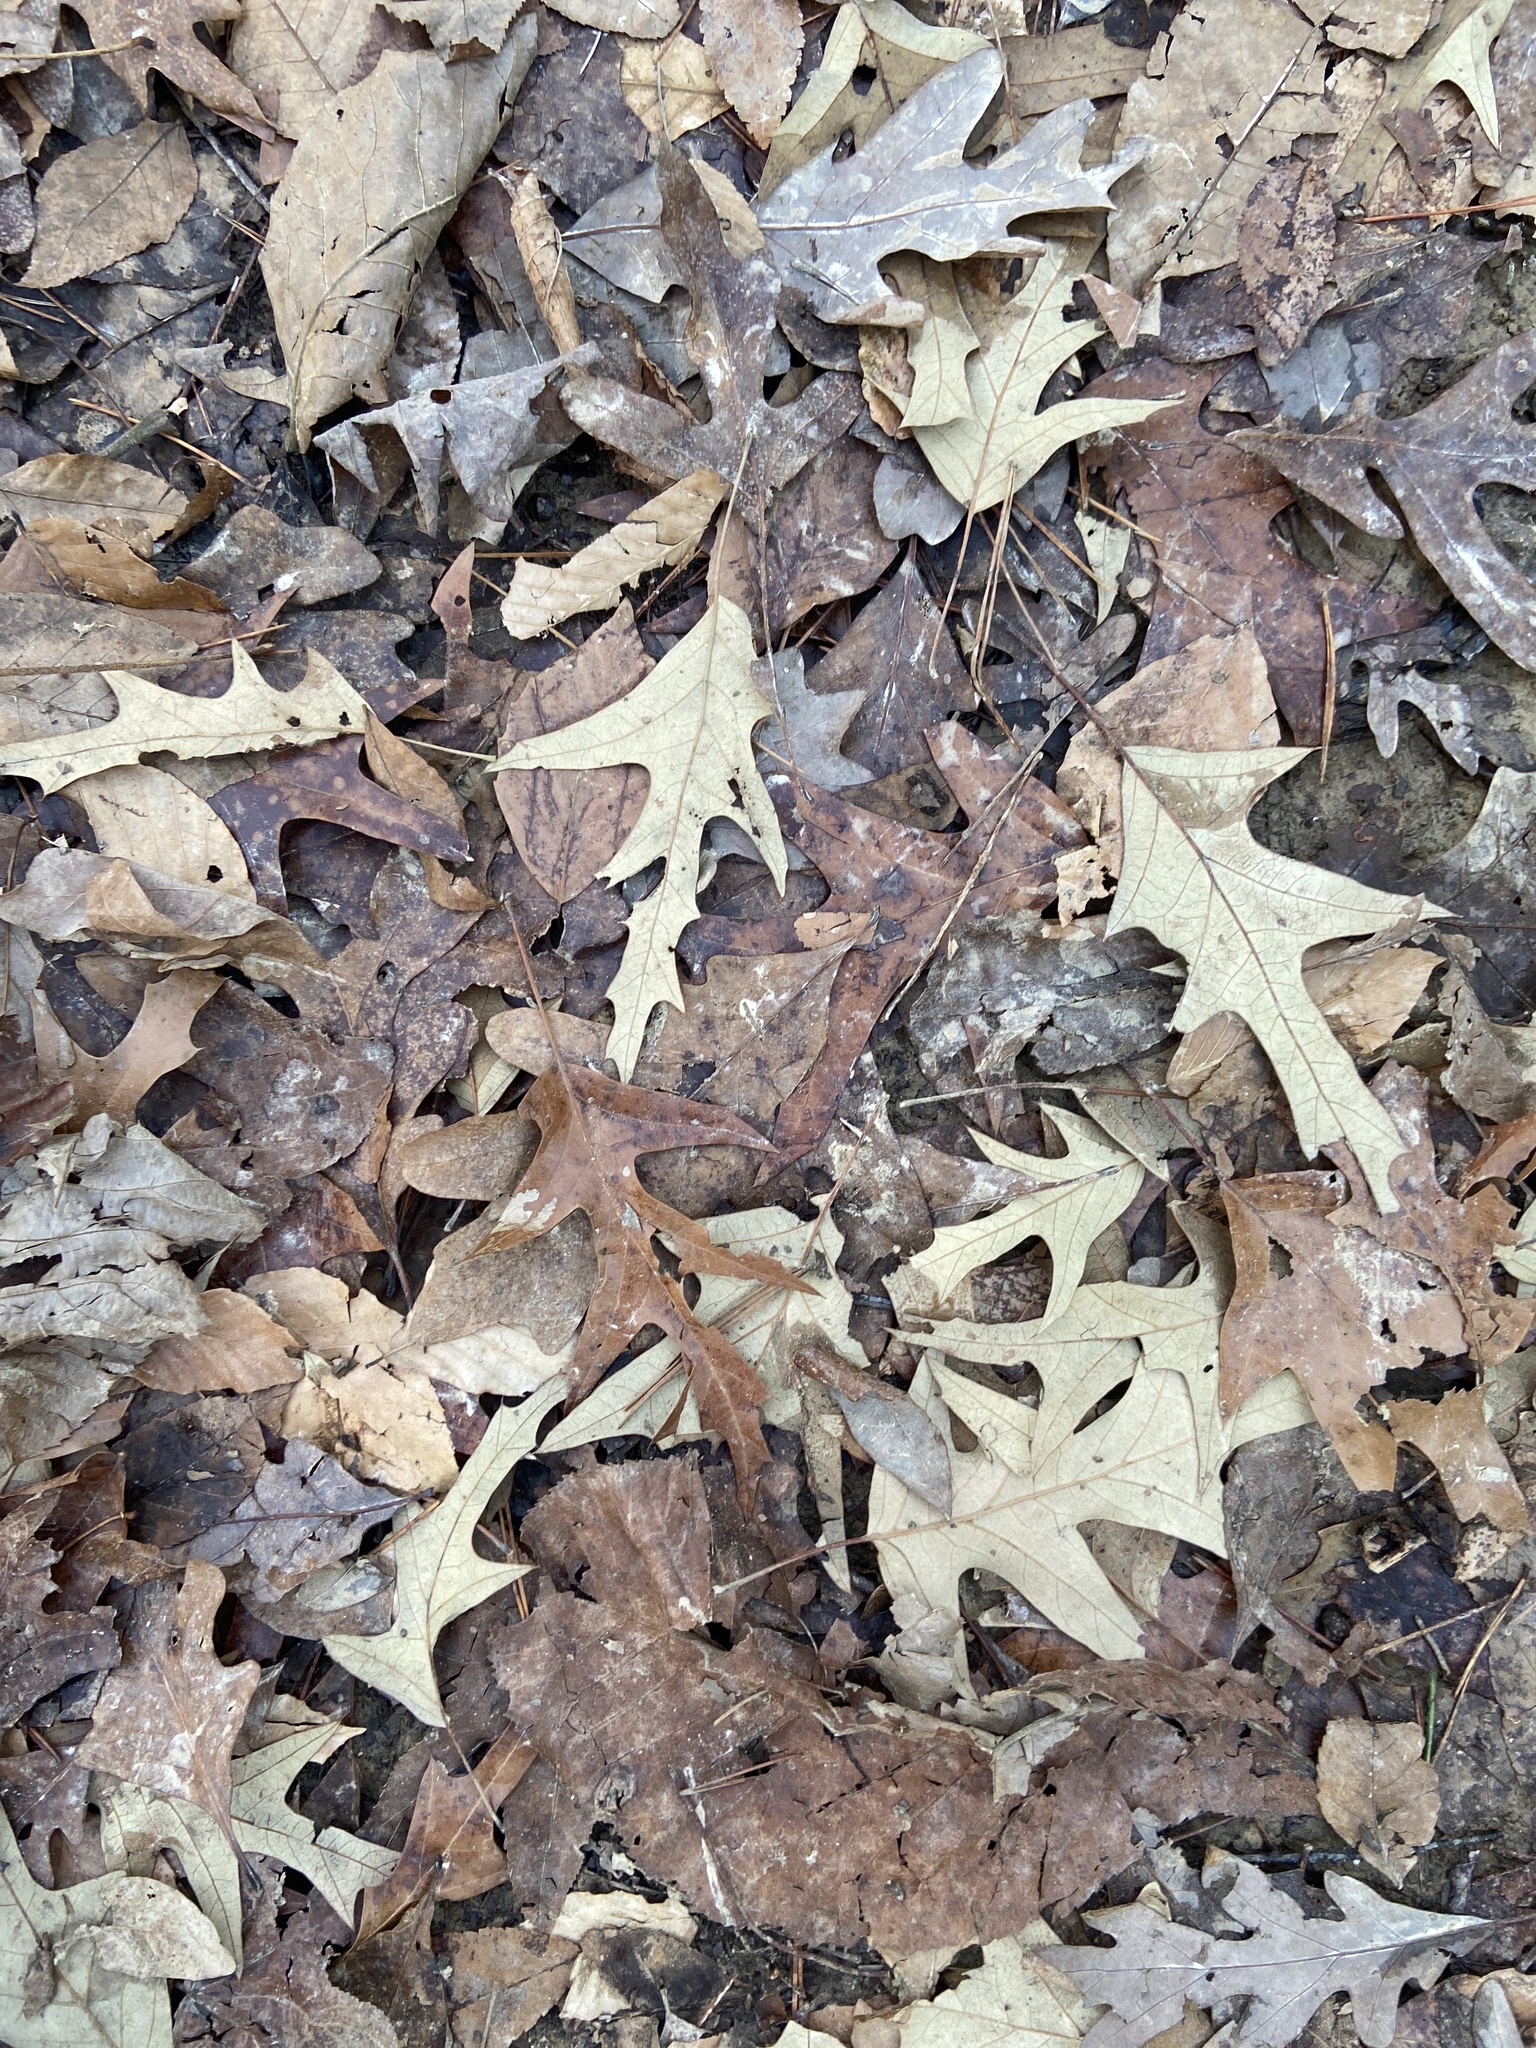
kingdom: Plantae
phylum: Tracheophyta
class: Magnoliopsida
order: Fagales
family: Fagaceae
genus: Quercus
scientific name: Quercus pagoda
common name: Cherrybark oak
